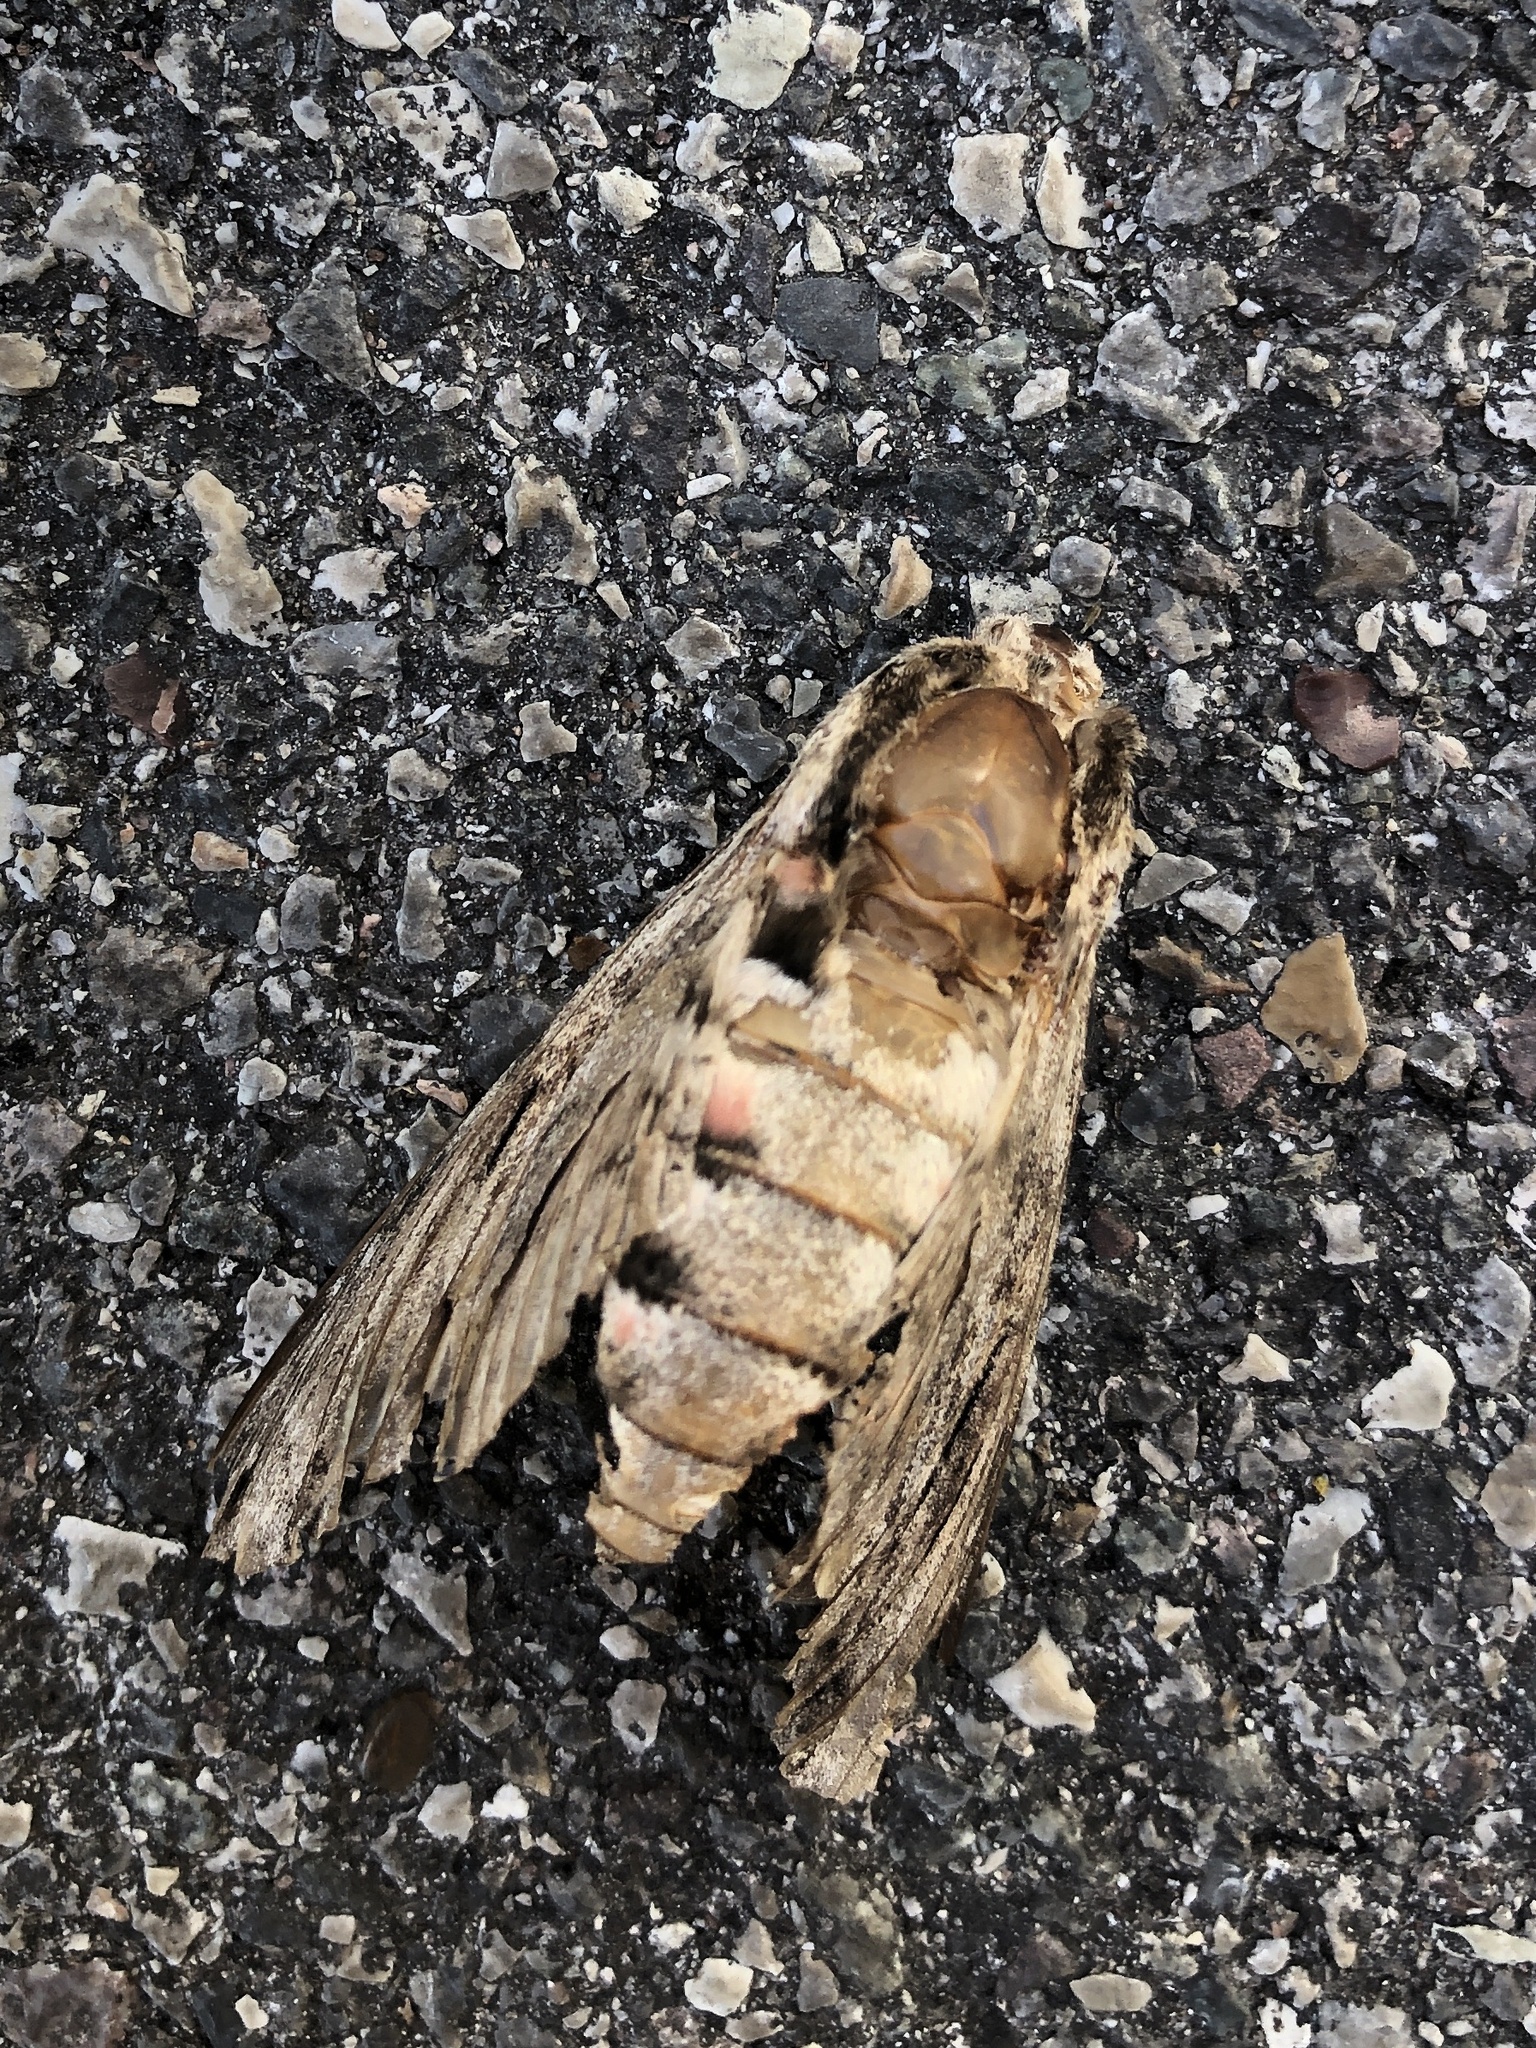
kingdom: Animalia
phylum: Arthropoda
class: Insecta
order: Lepidoptera
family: Sphingidae
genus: Agrius
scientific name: Agrius convolvuli
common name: Convolvulus hawkmoth
